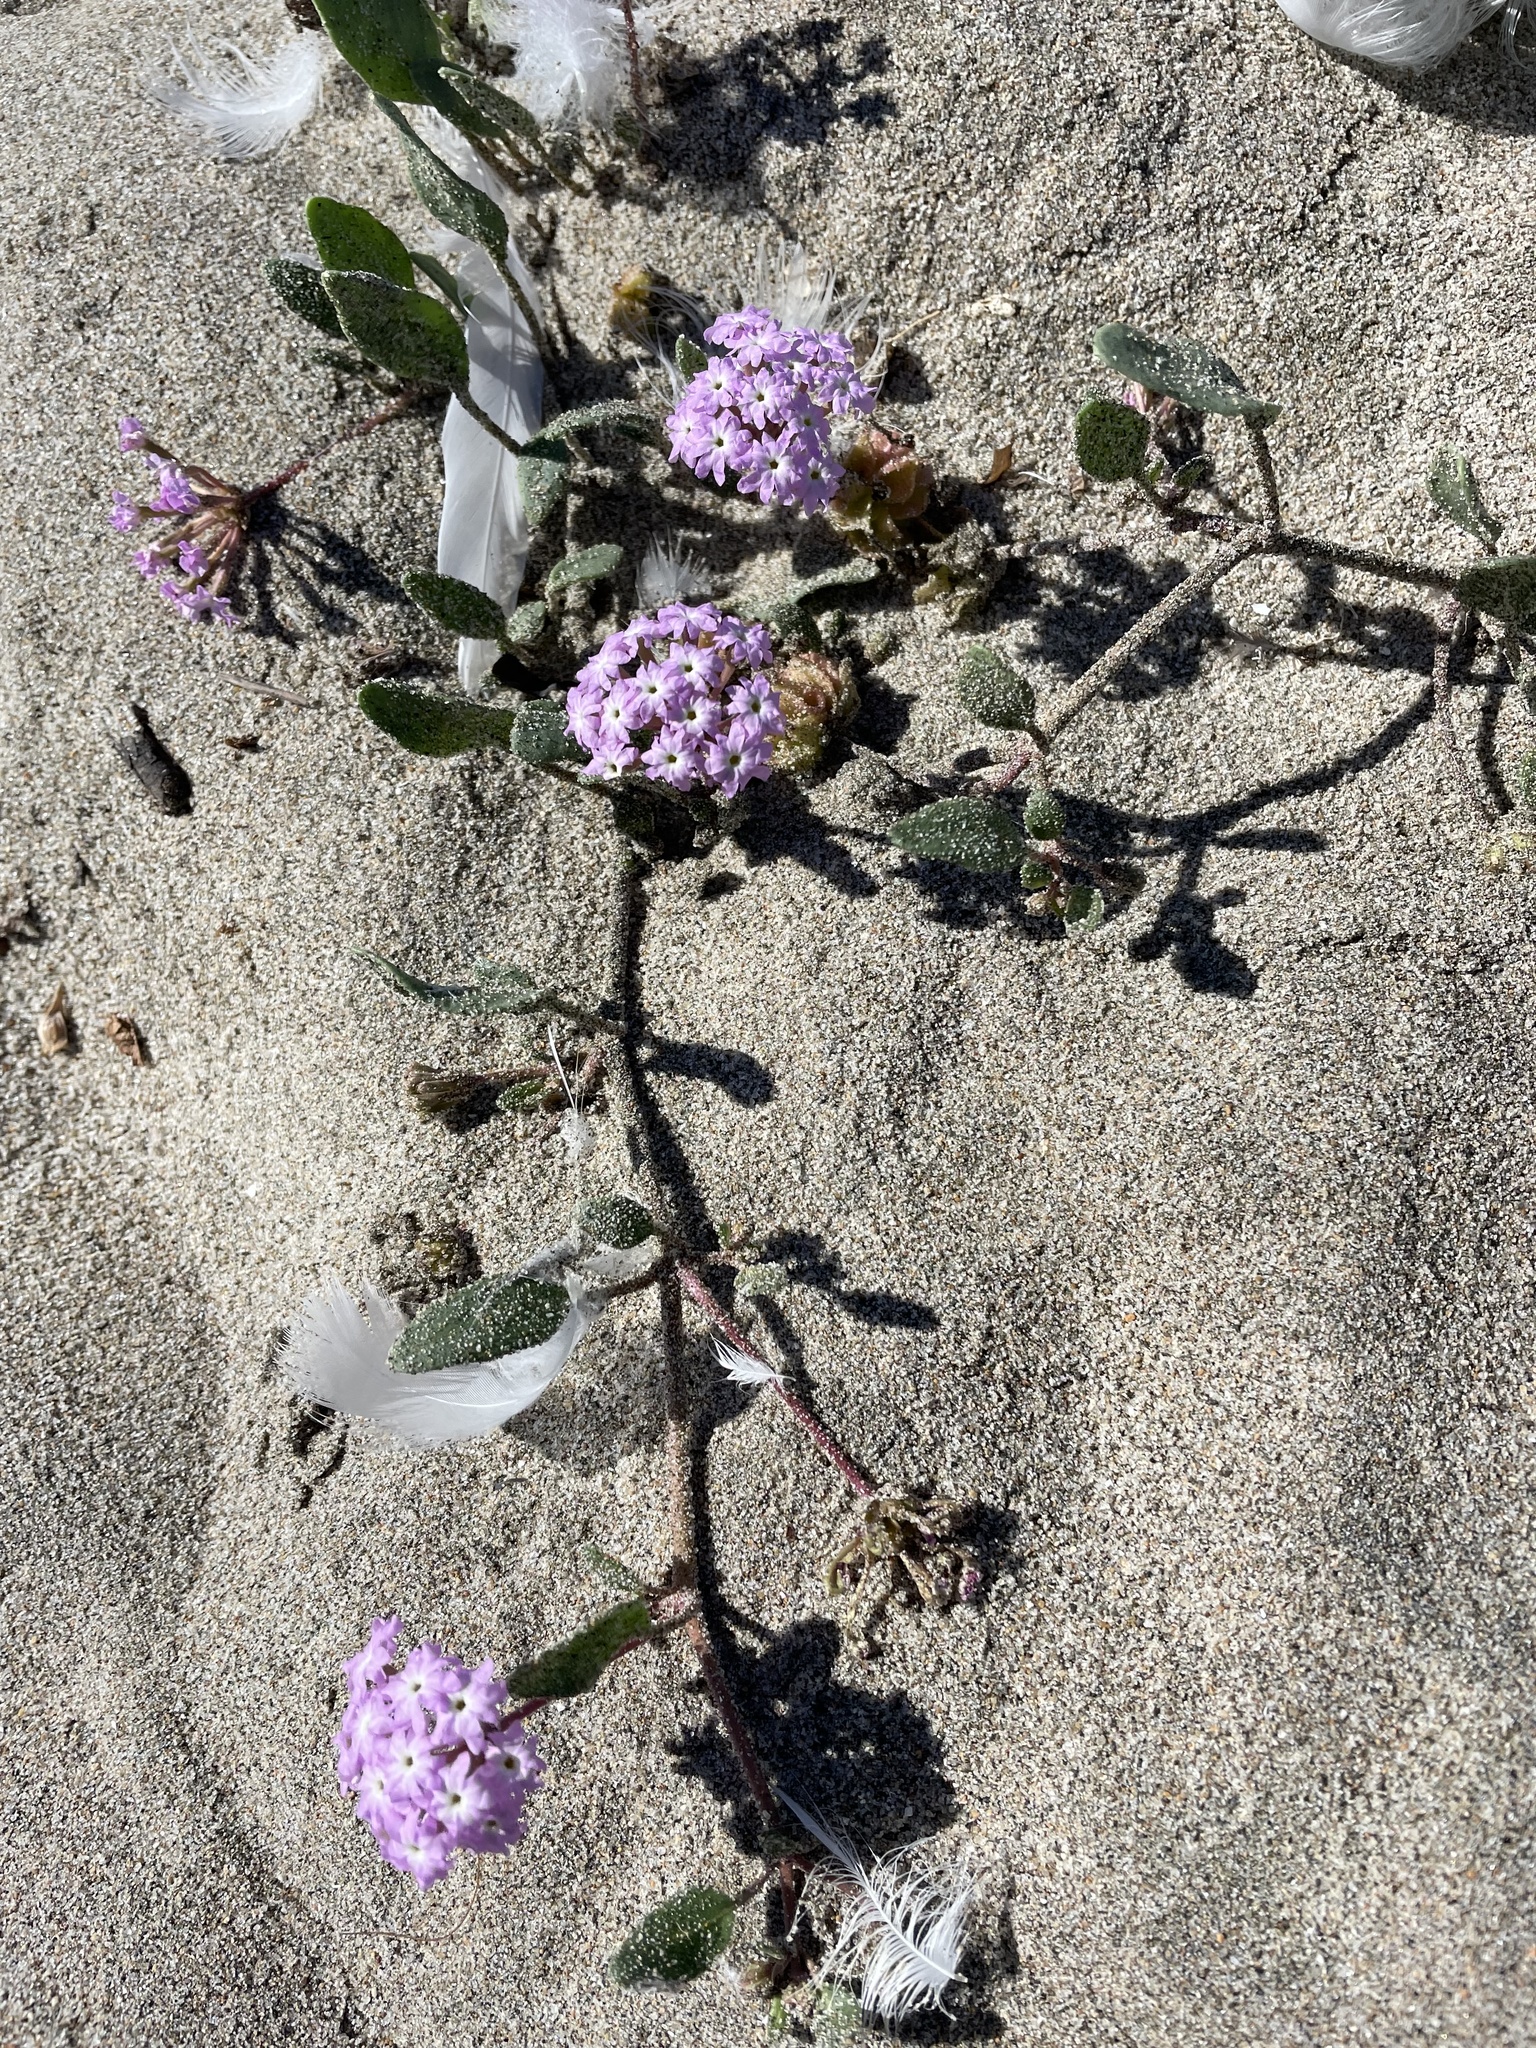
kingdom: Plantae
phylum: Tracheophyta
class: Magnoliopsida
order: Caryophyllales
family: Nyctaginaceae
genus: Abronia
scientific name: Abronia umbellata
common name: Sand-verbena
